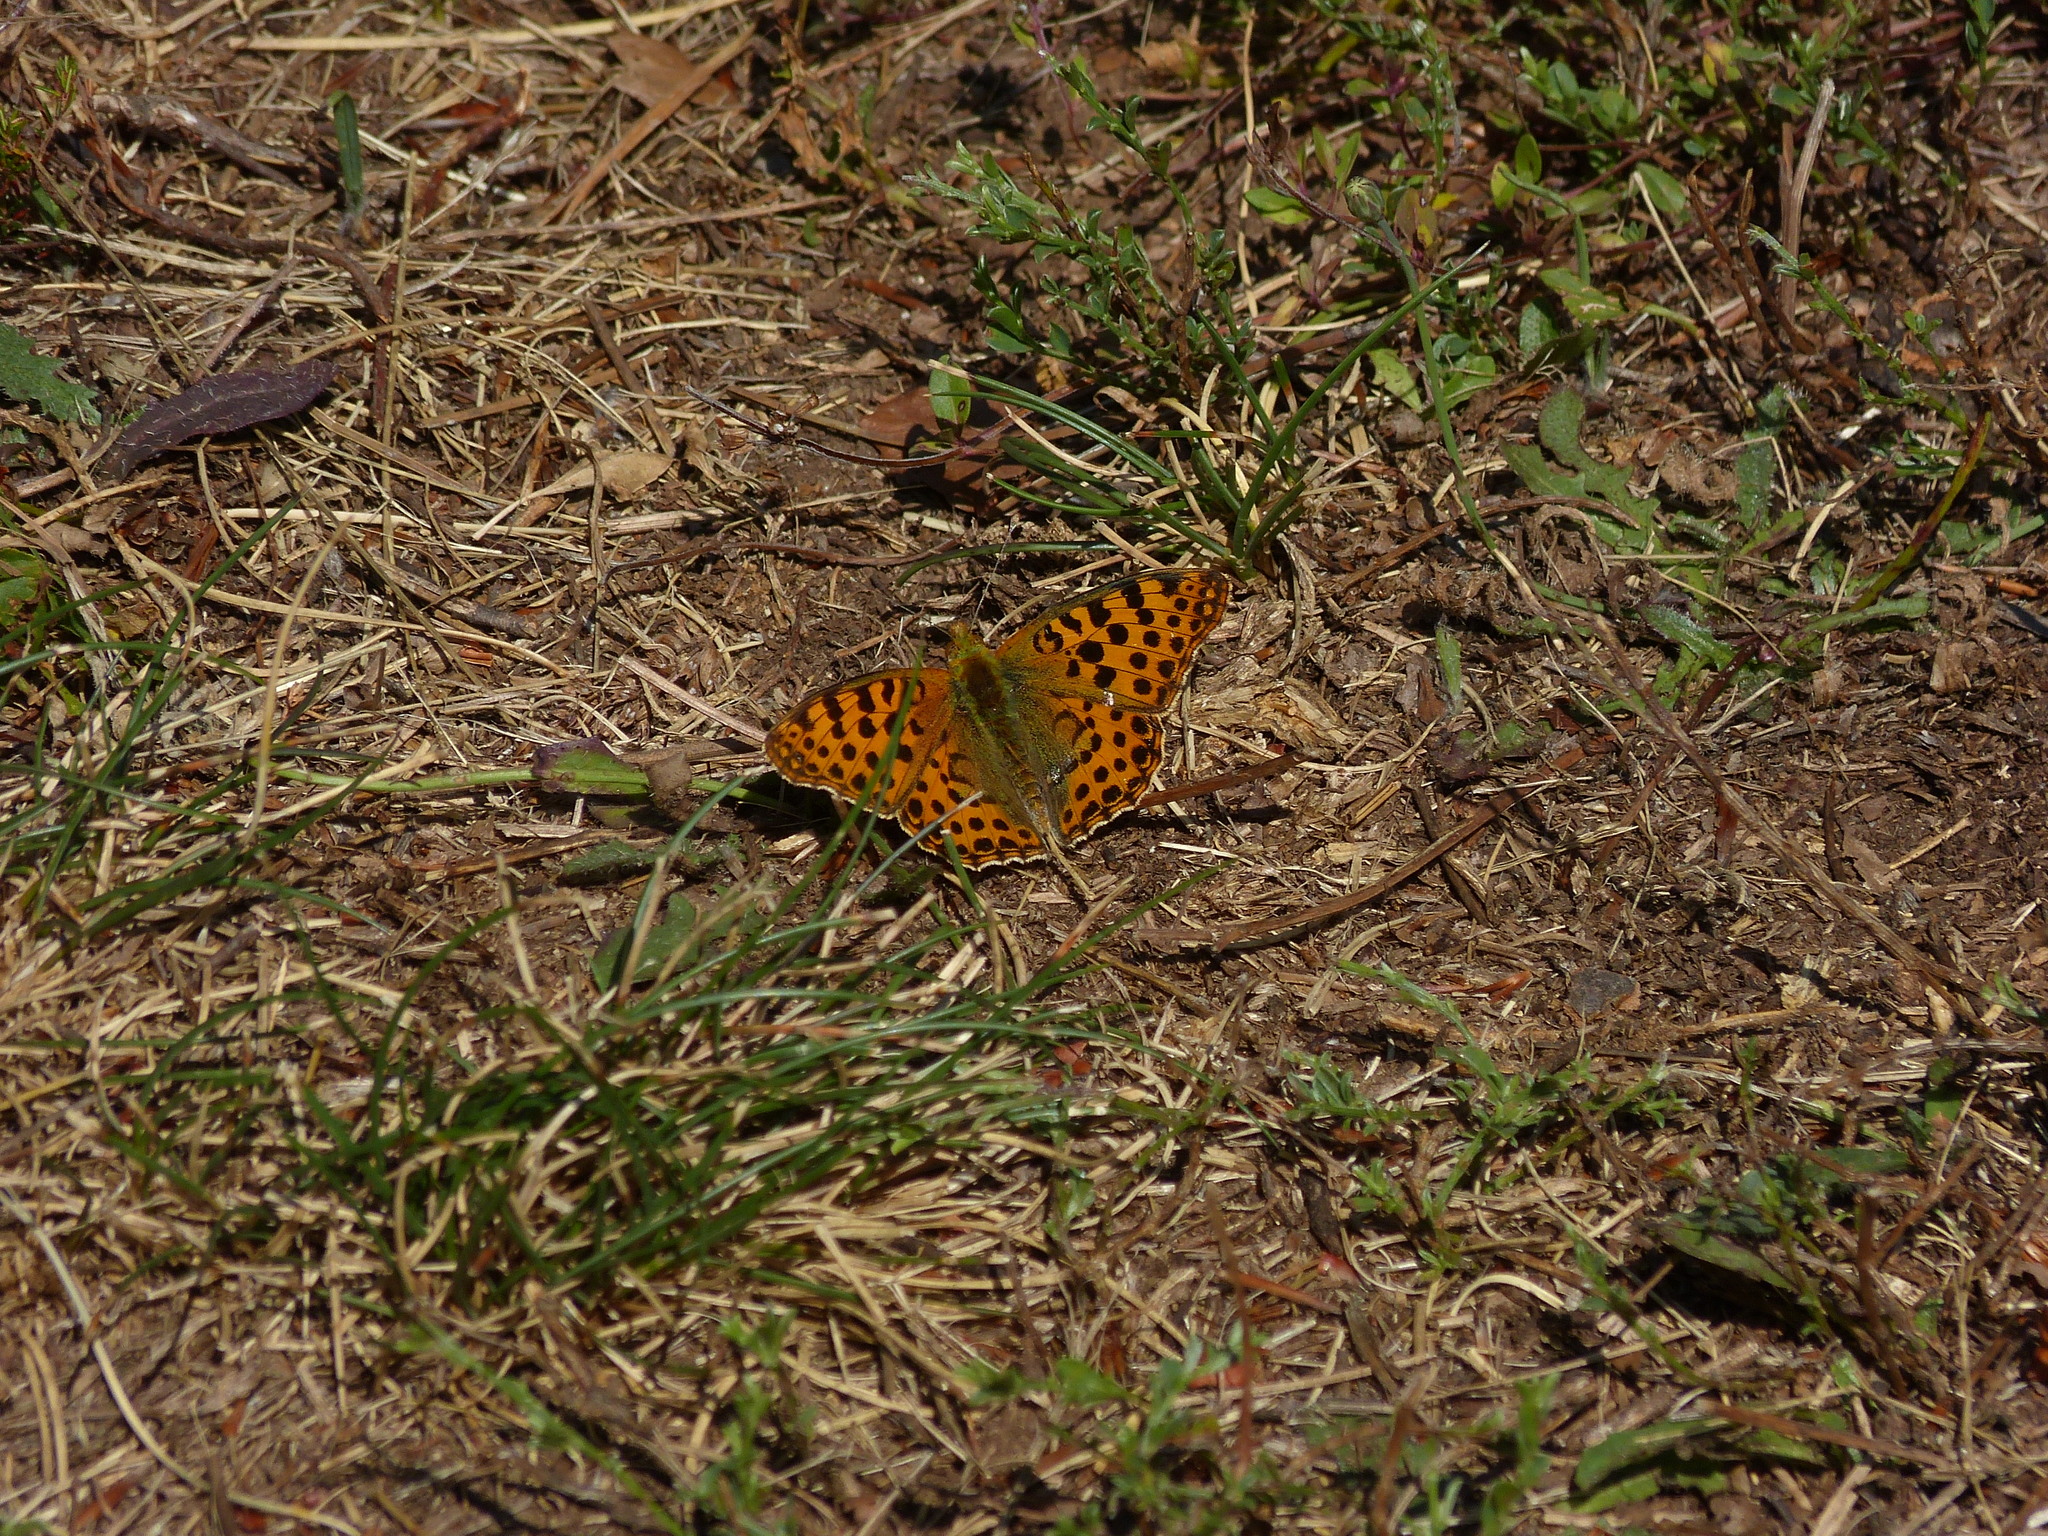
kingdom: Animalia
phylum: Arthropoda
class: Insecta
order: Lepidoptera
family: Nymphalidae
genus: Issoria
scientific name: Issoria lathonia
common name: Queen of spain fritillary
